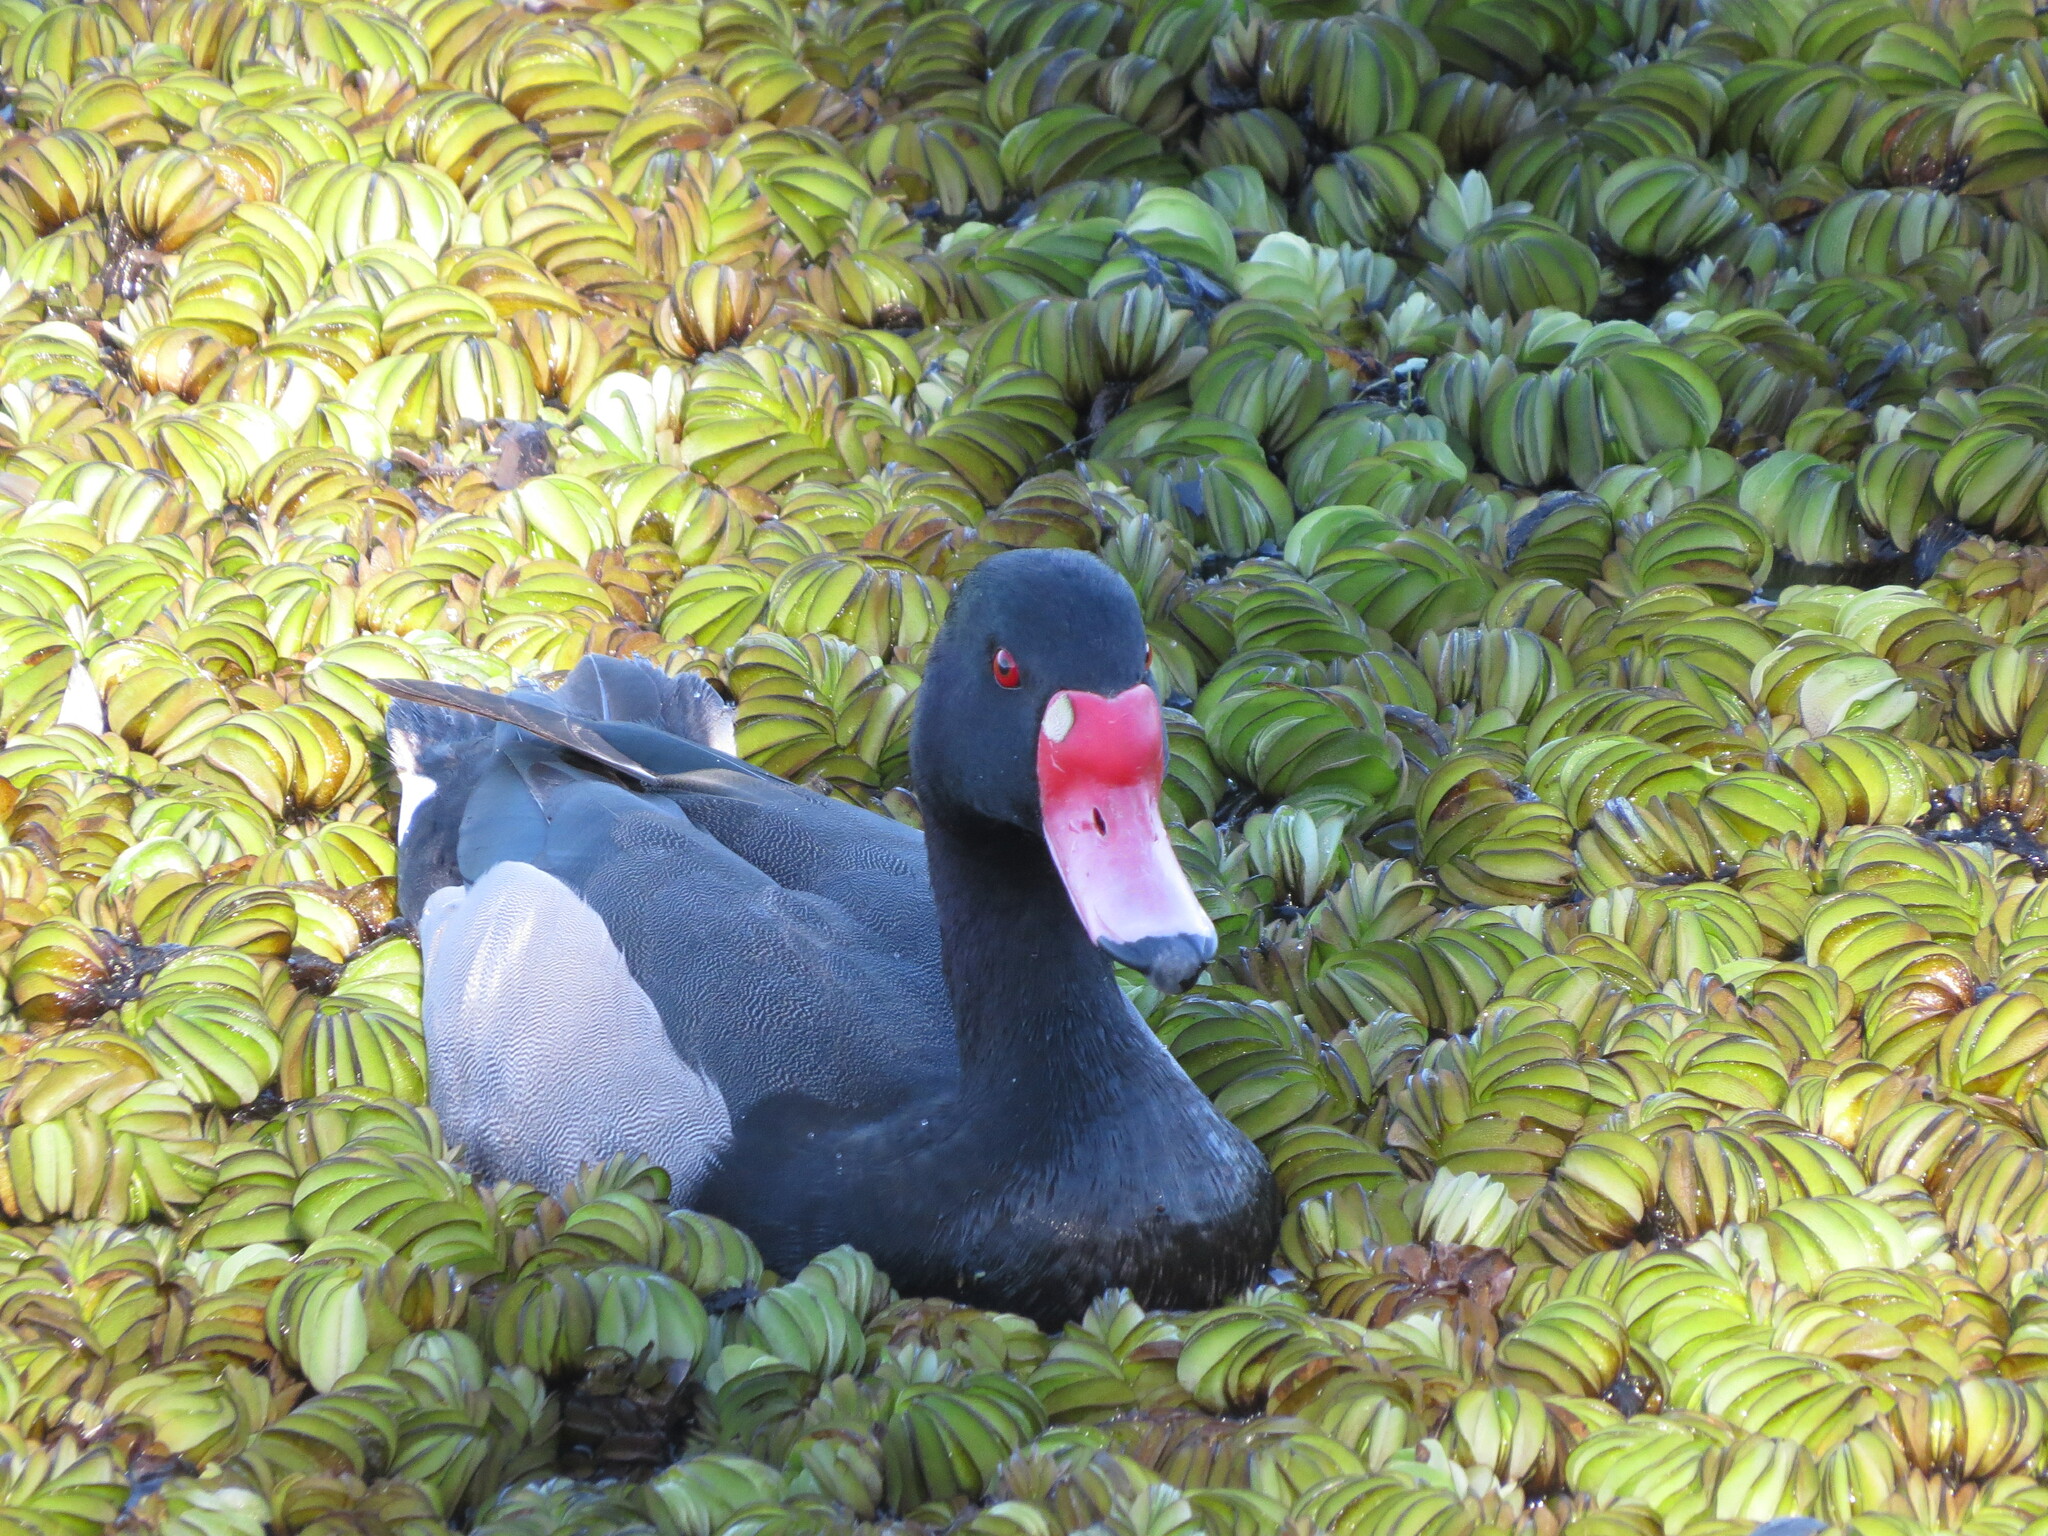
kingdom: Animalia
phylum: Chordata
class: Aves
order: Anseriformes
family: Anatidae
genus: Netta
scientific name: Netta peposaca
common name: Rosy-billed pochard
